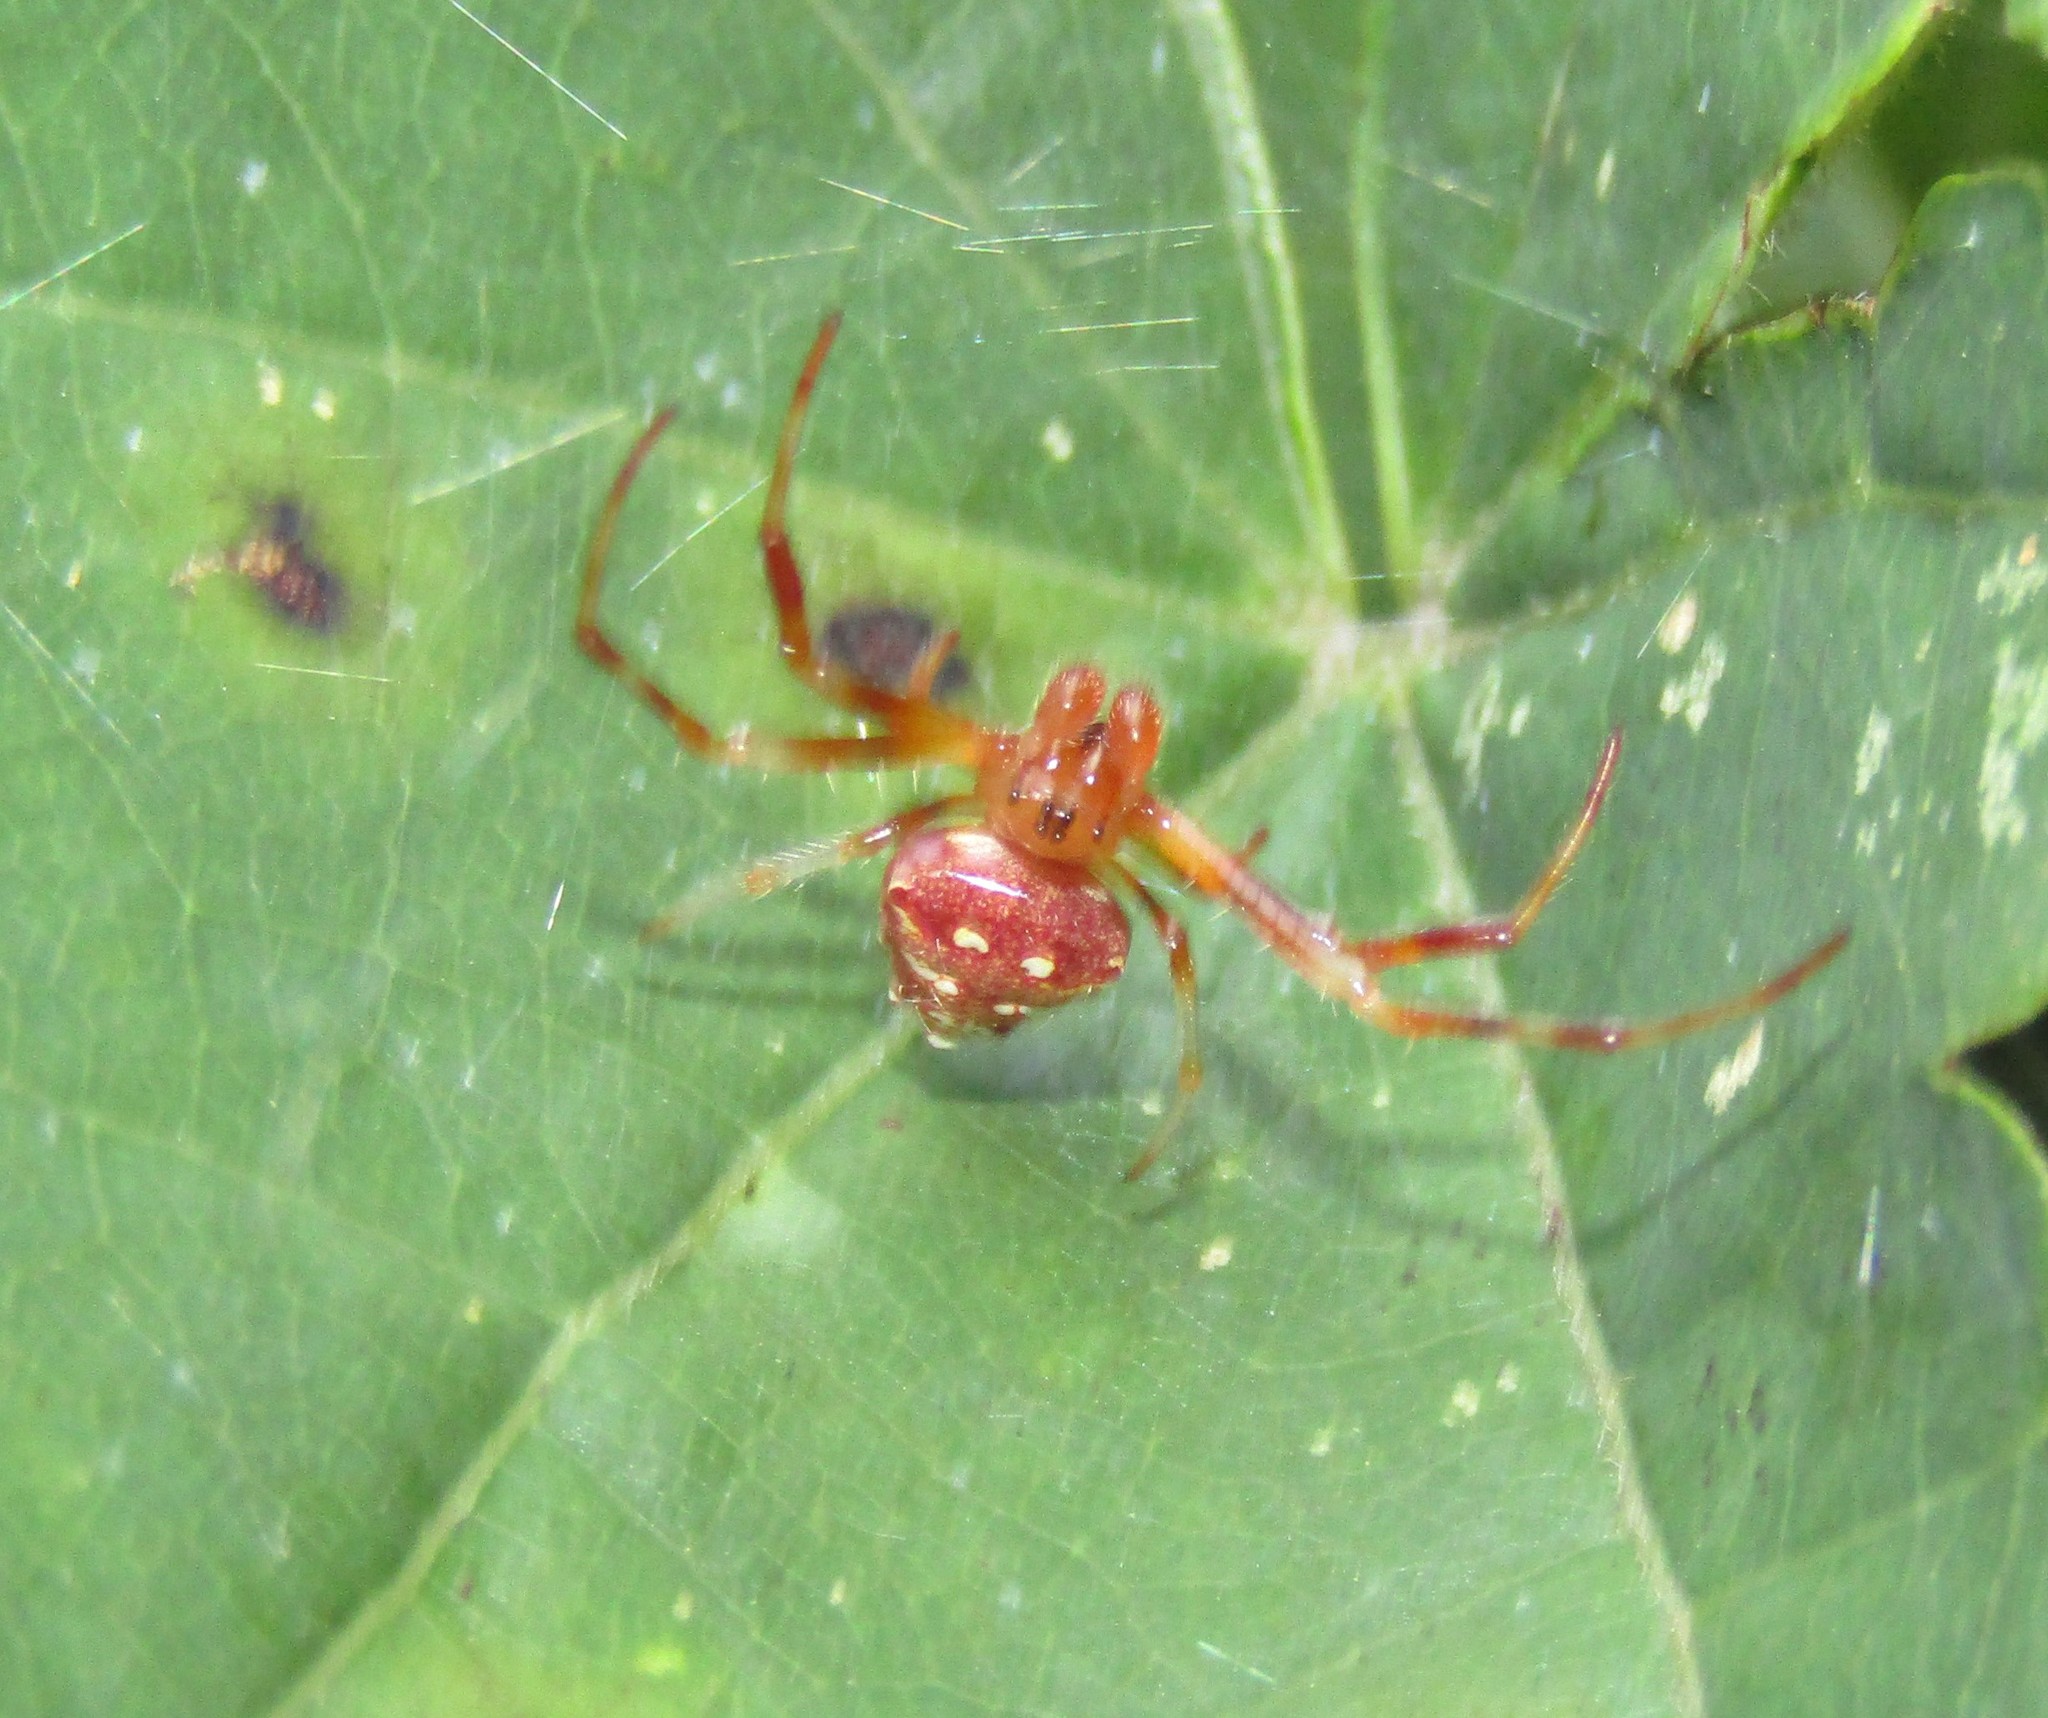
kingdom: Animalia
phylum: Arthropoda
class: Arachnida
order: Araneae
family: Araneidae
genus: Verrucosa
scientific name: Verrucosa arenata
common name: Orb weavers
